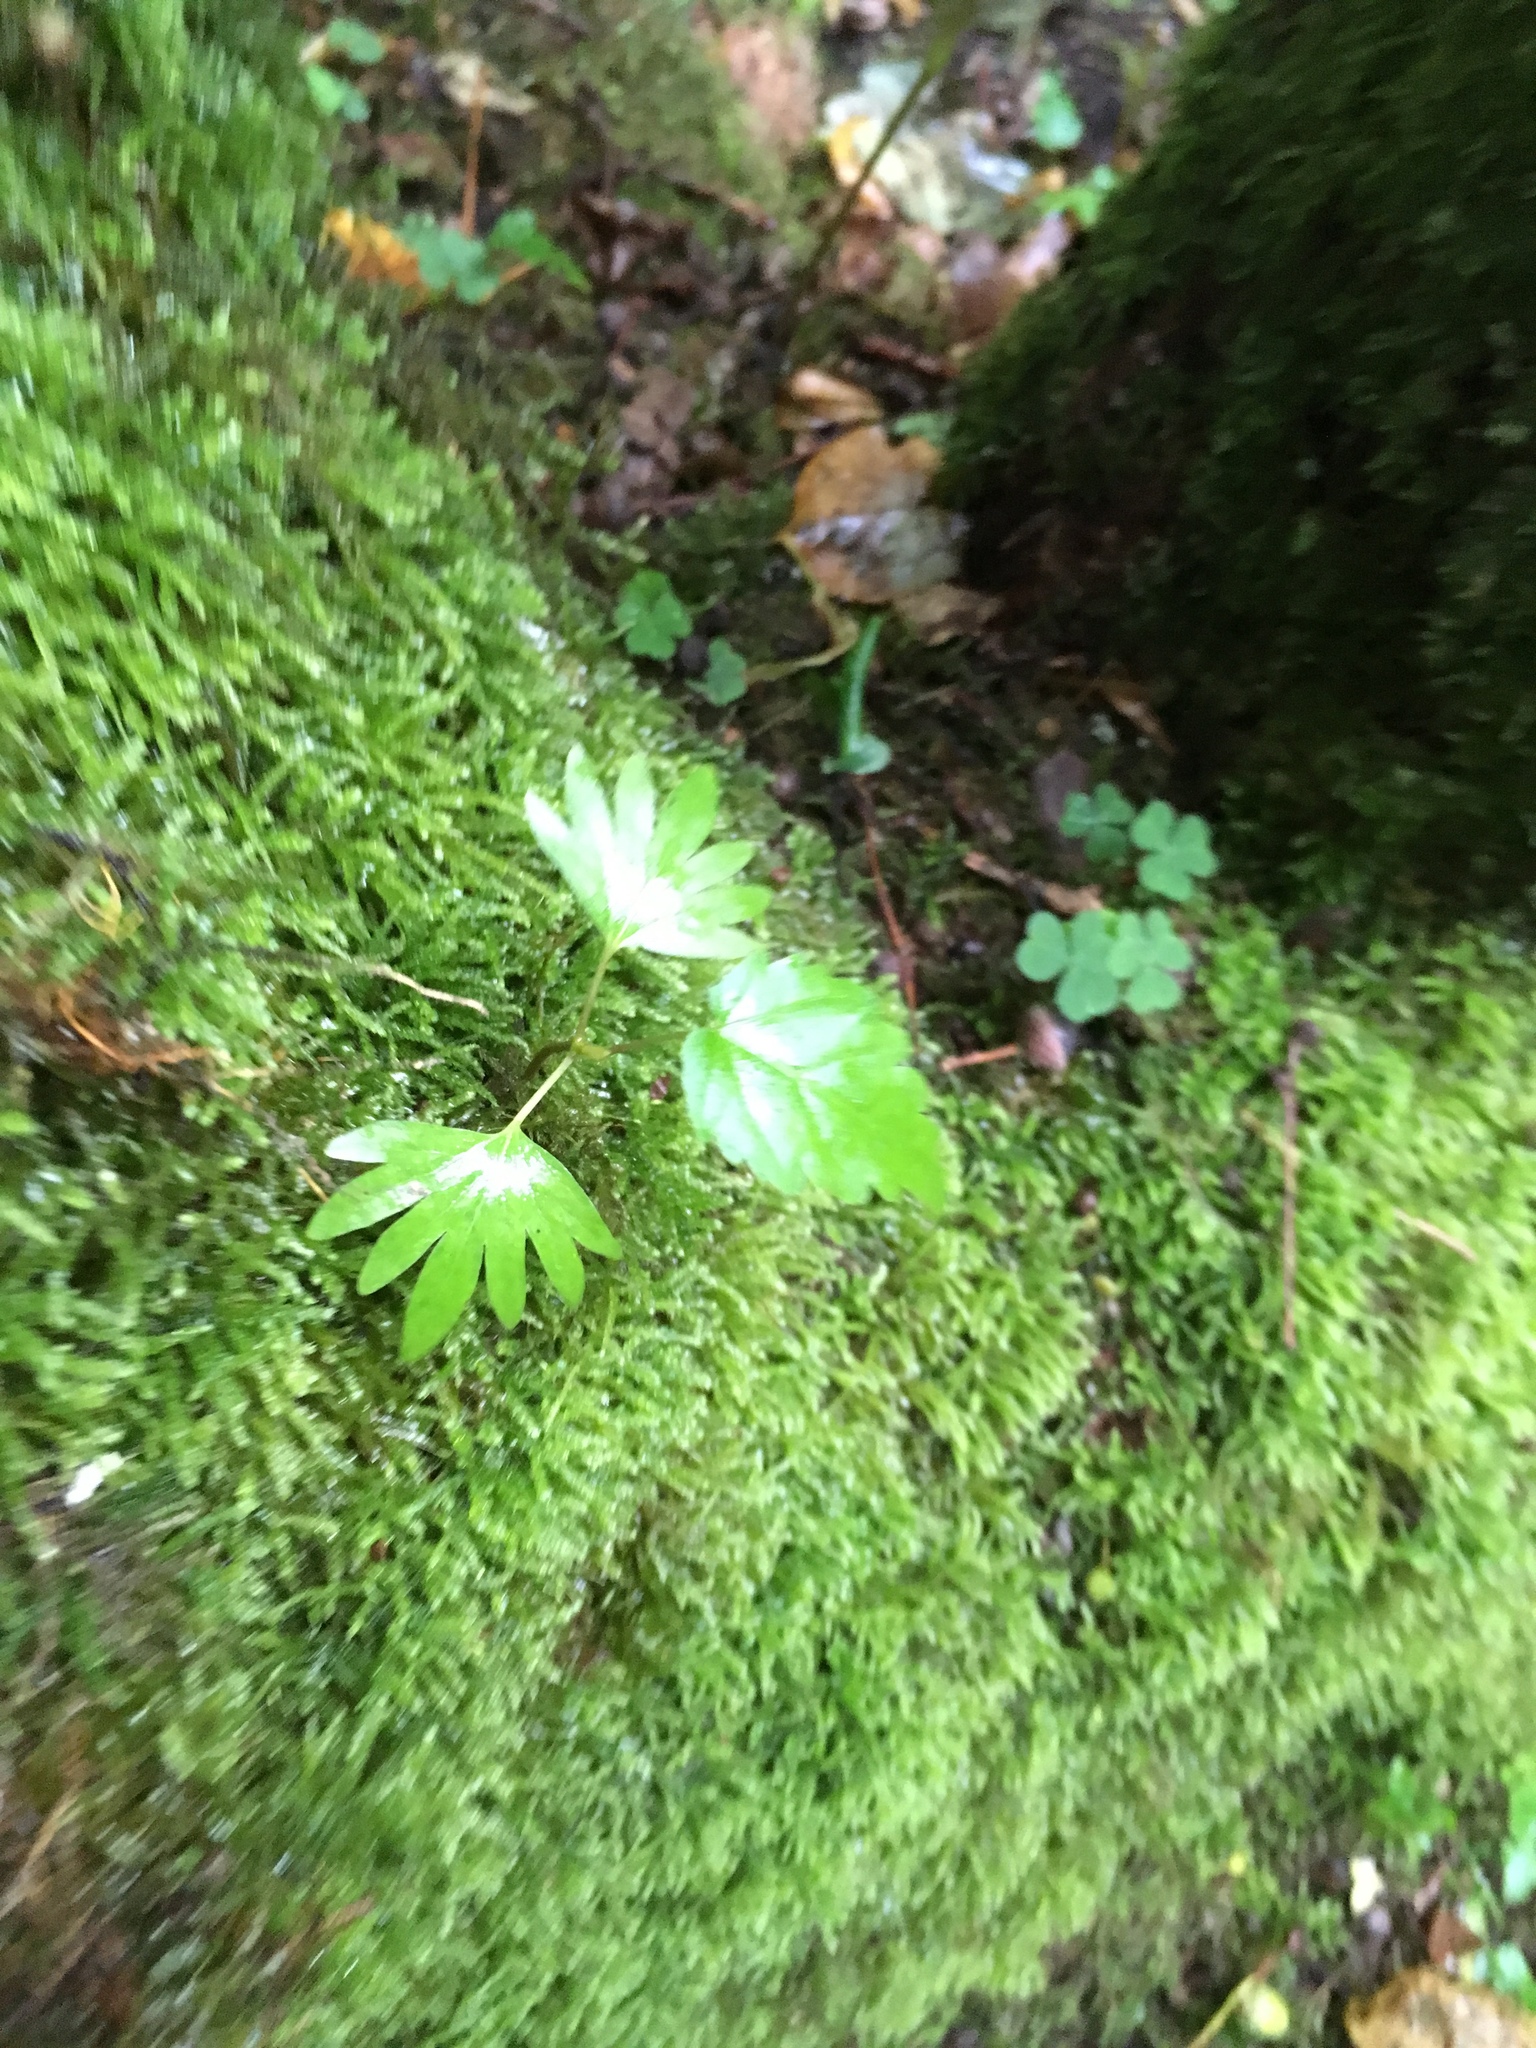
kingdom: Plantae
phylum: Tracheophyta
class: Magnoliopsida
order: Malvales
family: Malvaceae
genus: Tilia
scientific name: Tilia cordata
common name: Small-leaved lime
